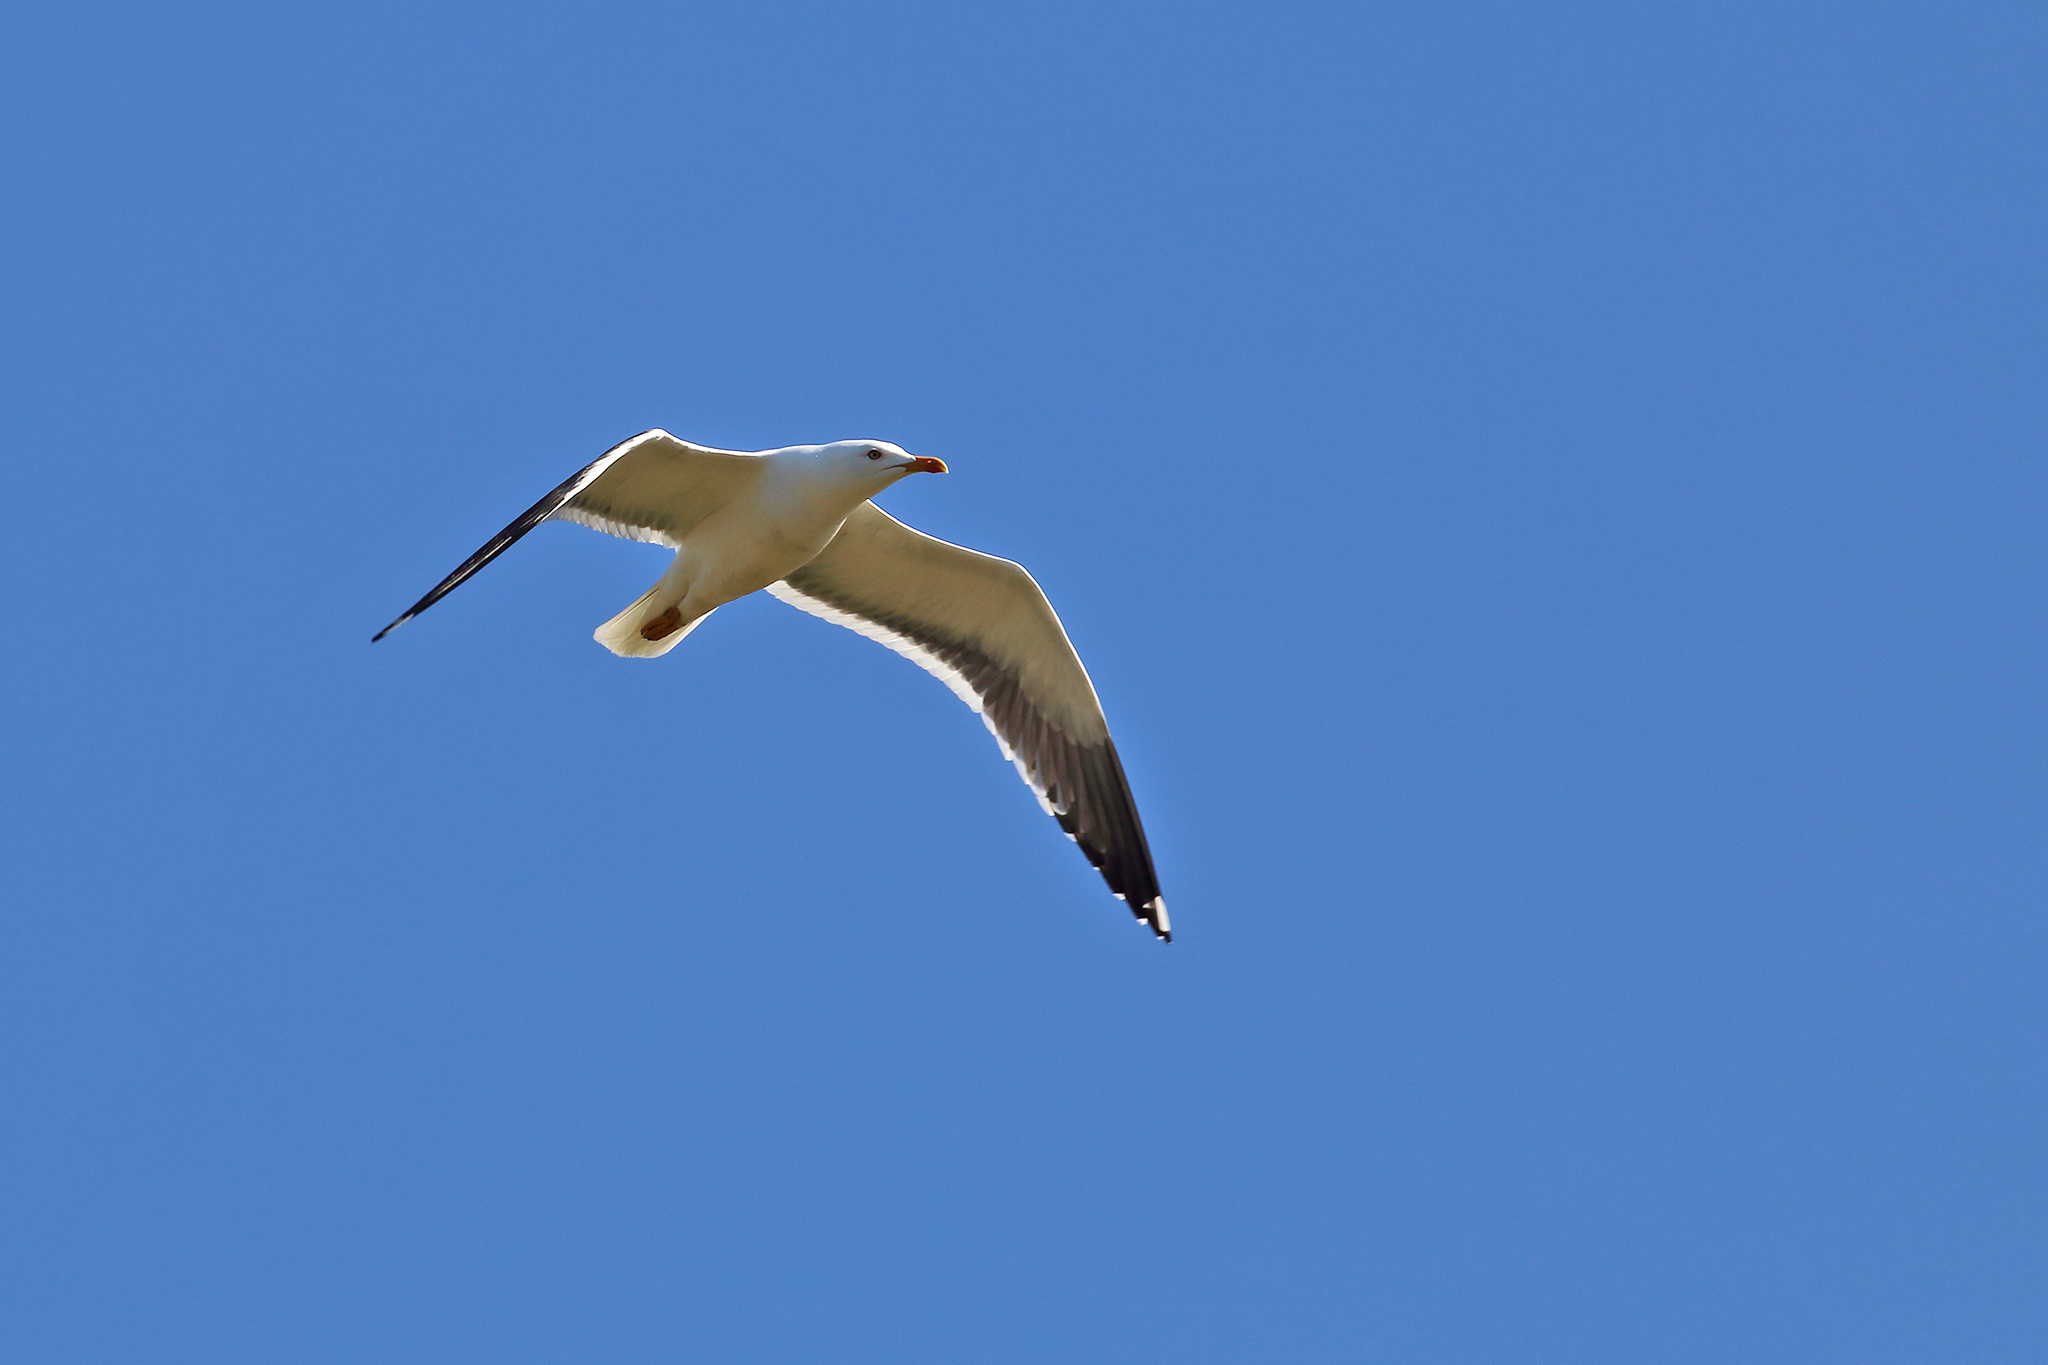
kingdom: Animalia
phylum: Chordata
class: Aves
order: Charadriiformes
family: Laridae
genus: Larus
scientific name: Larus fuscus
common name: Lesser black-backed gull
